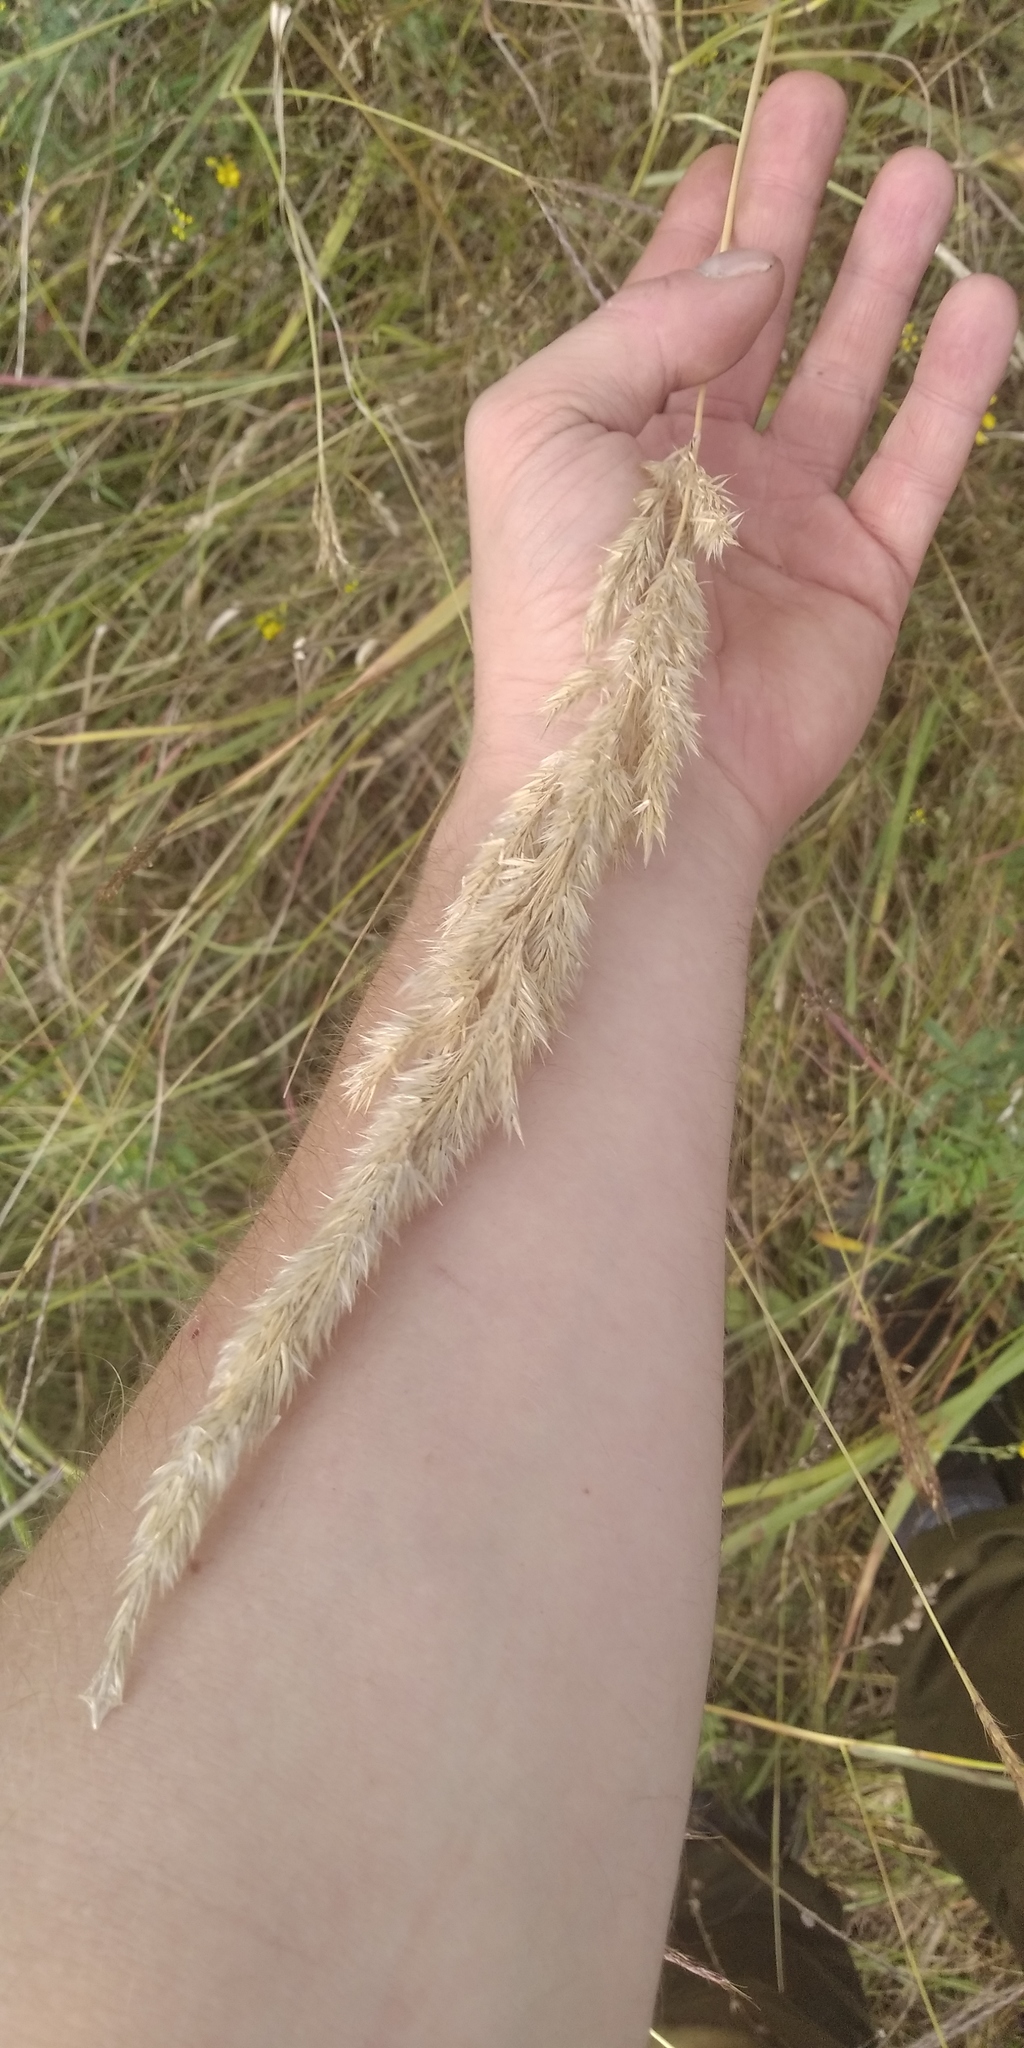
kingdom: Plantae
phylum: Tracheophyta
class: Liliopsida
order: Poales
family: Poaceae
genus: Calamagrostis
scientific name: Calamagrostis epigejos
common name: Wood small-reed
